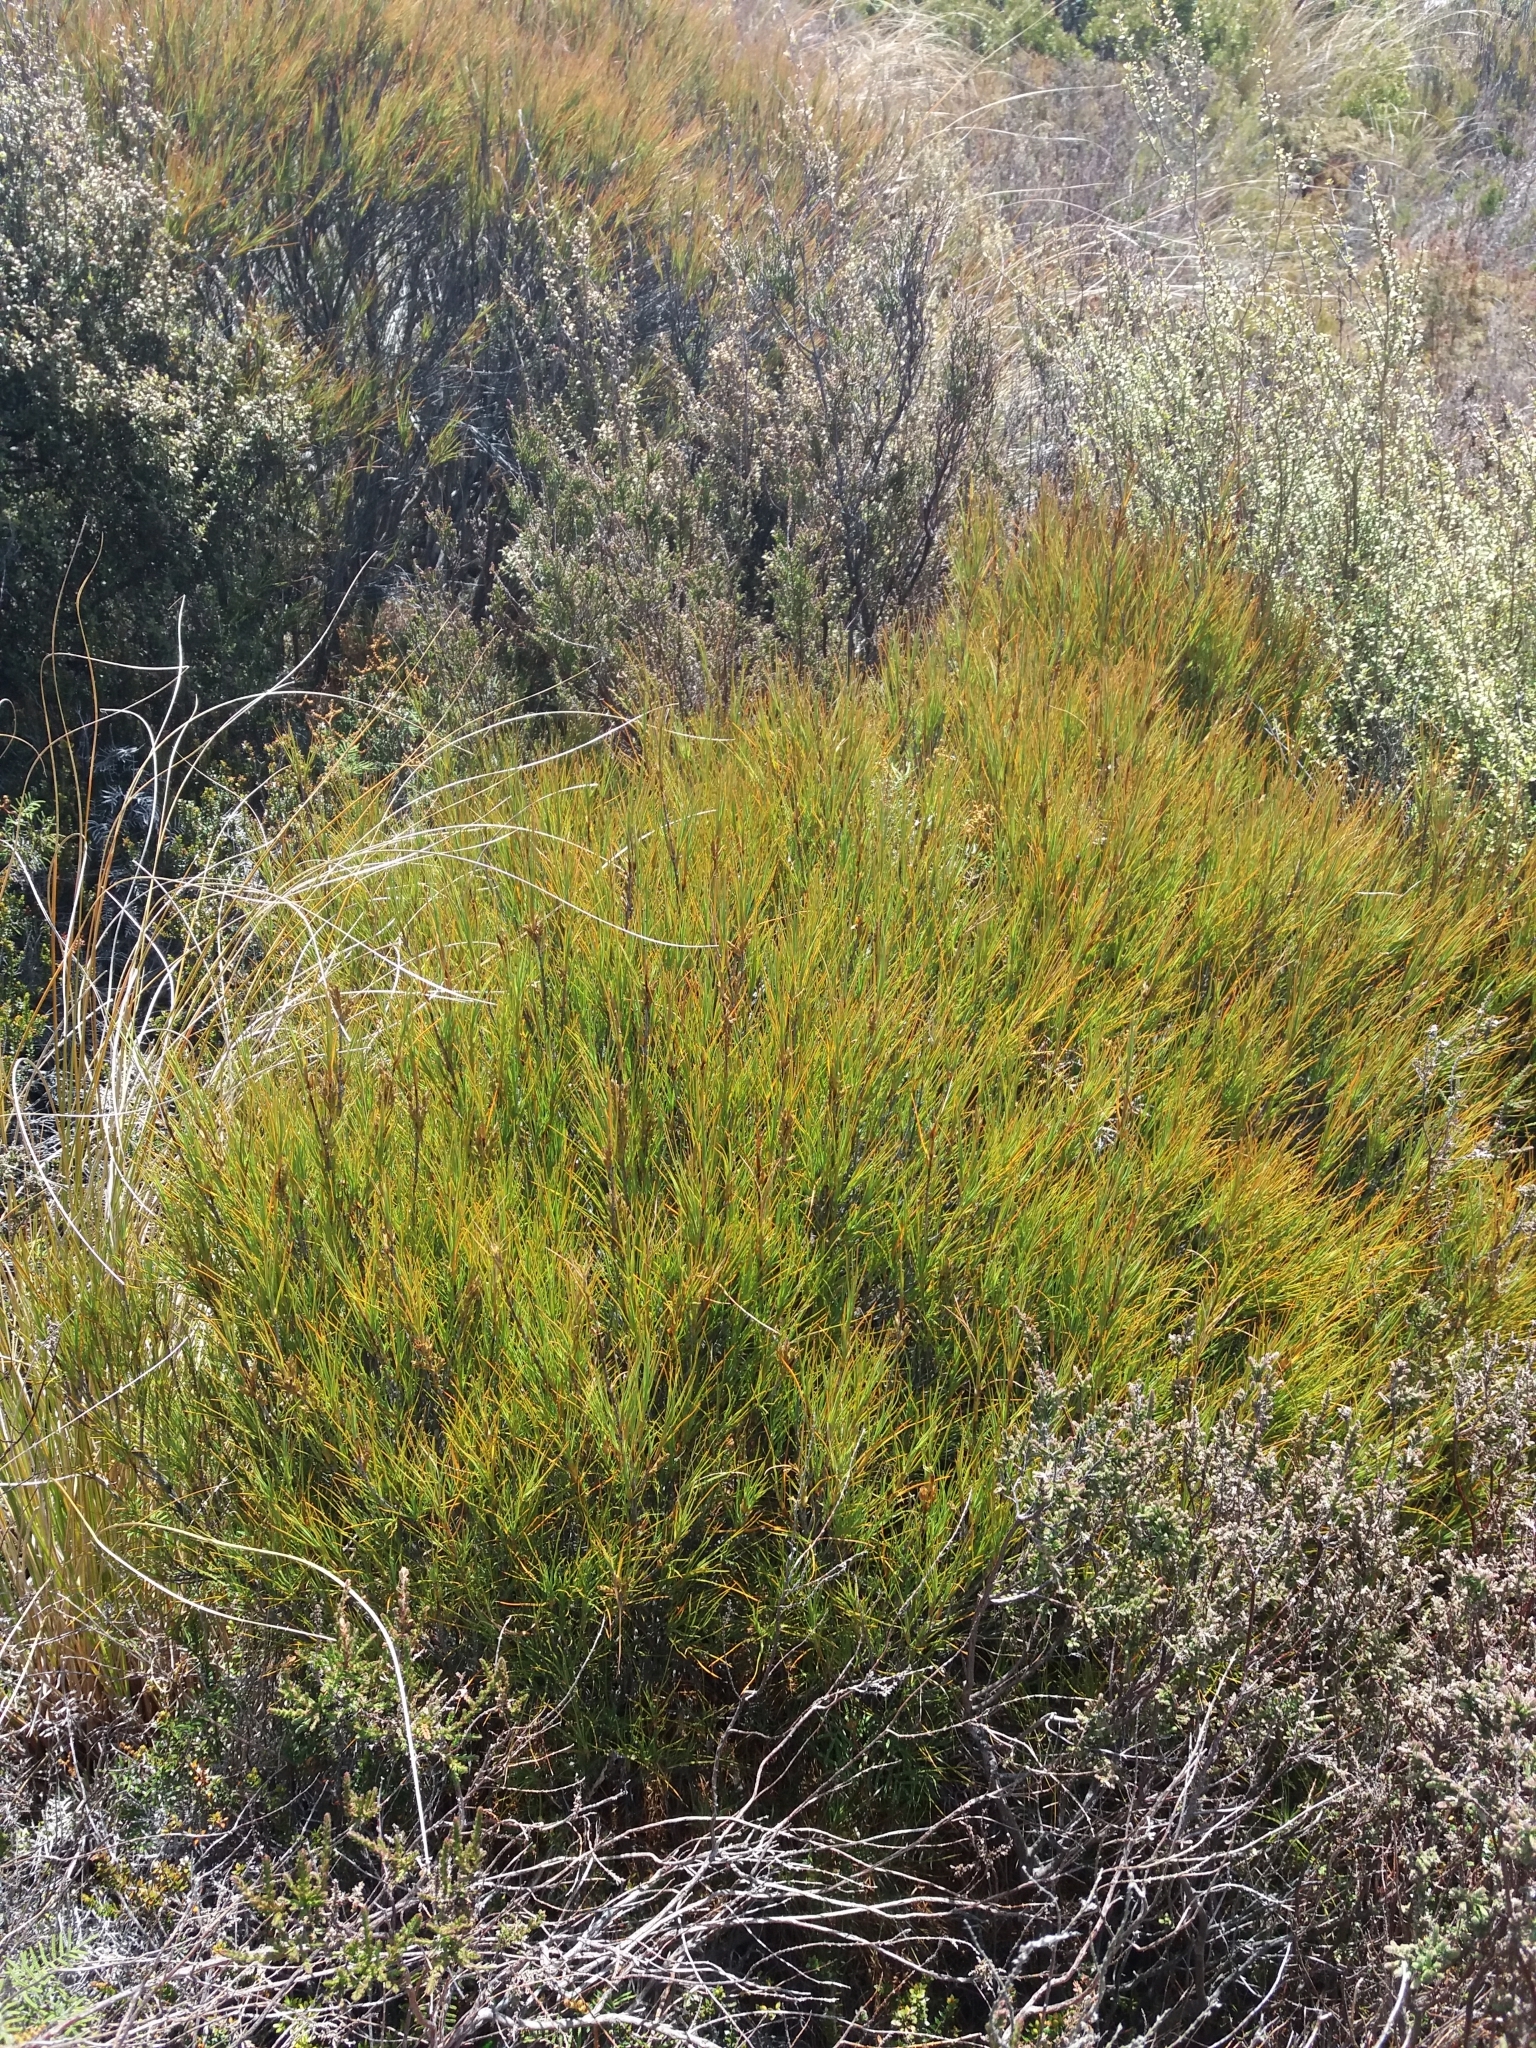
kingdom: Plantae
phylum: Tracheophyta
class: Magnoliopsida
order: Ericales
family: Ericaceae
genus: Dracophyllum
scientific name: Dracophyllum filifolium
